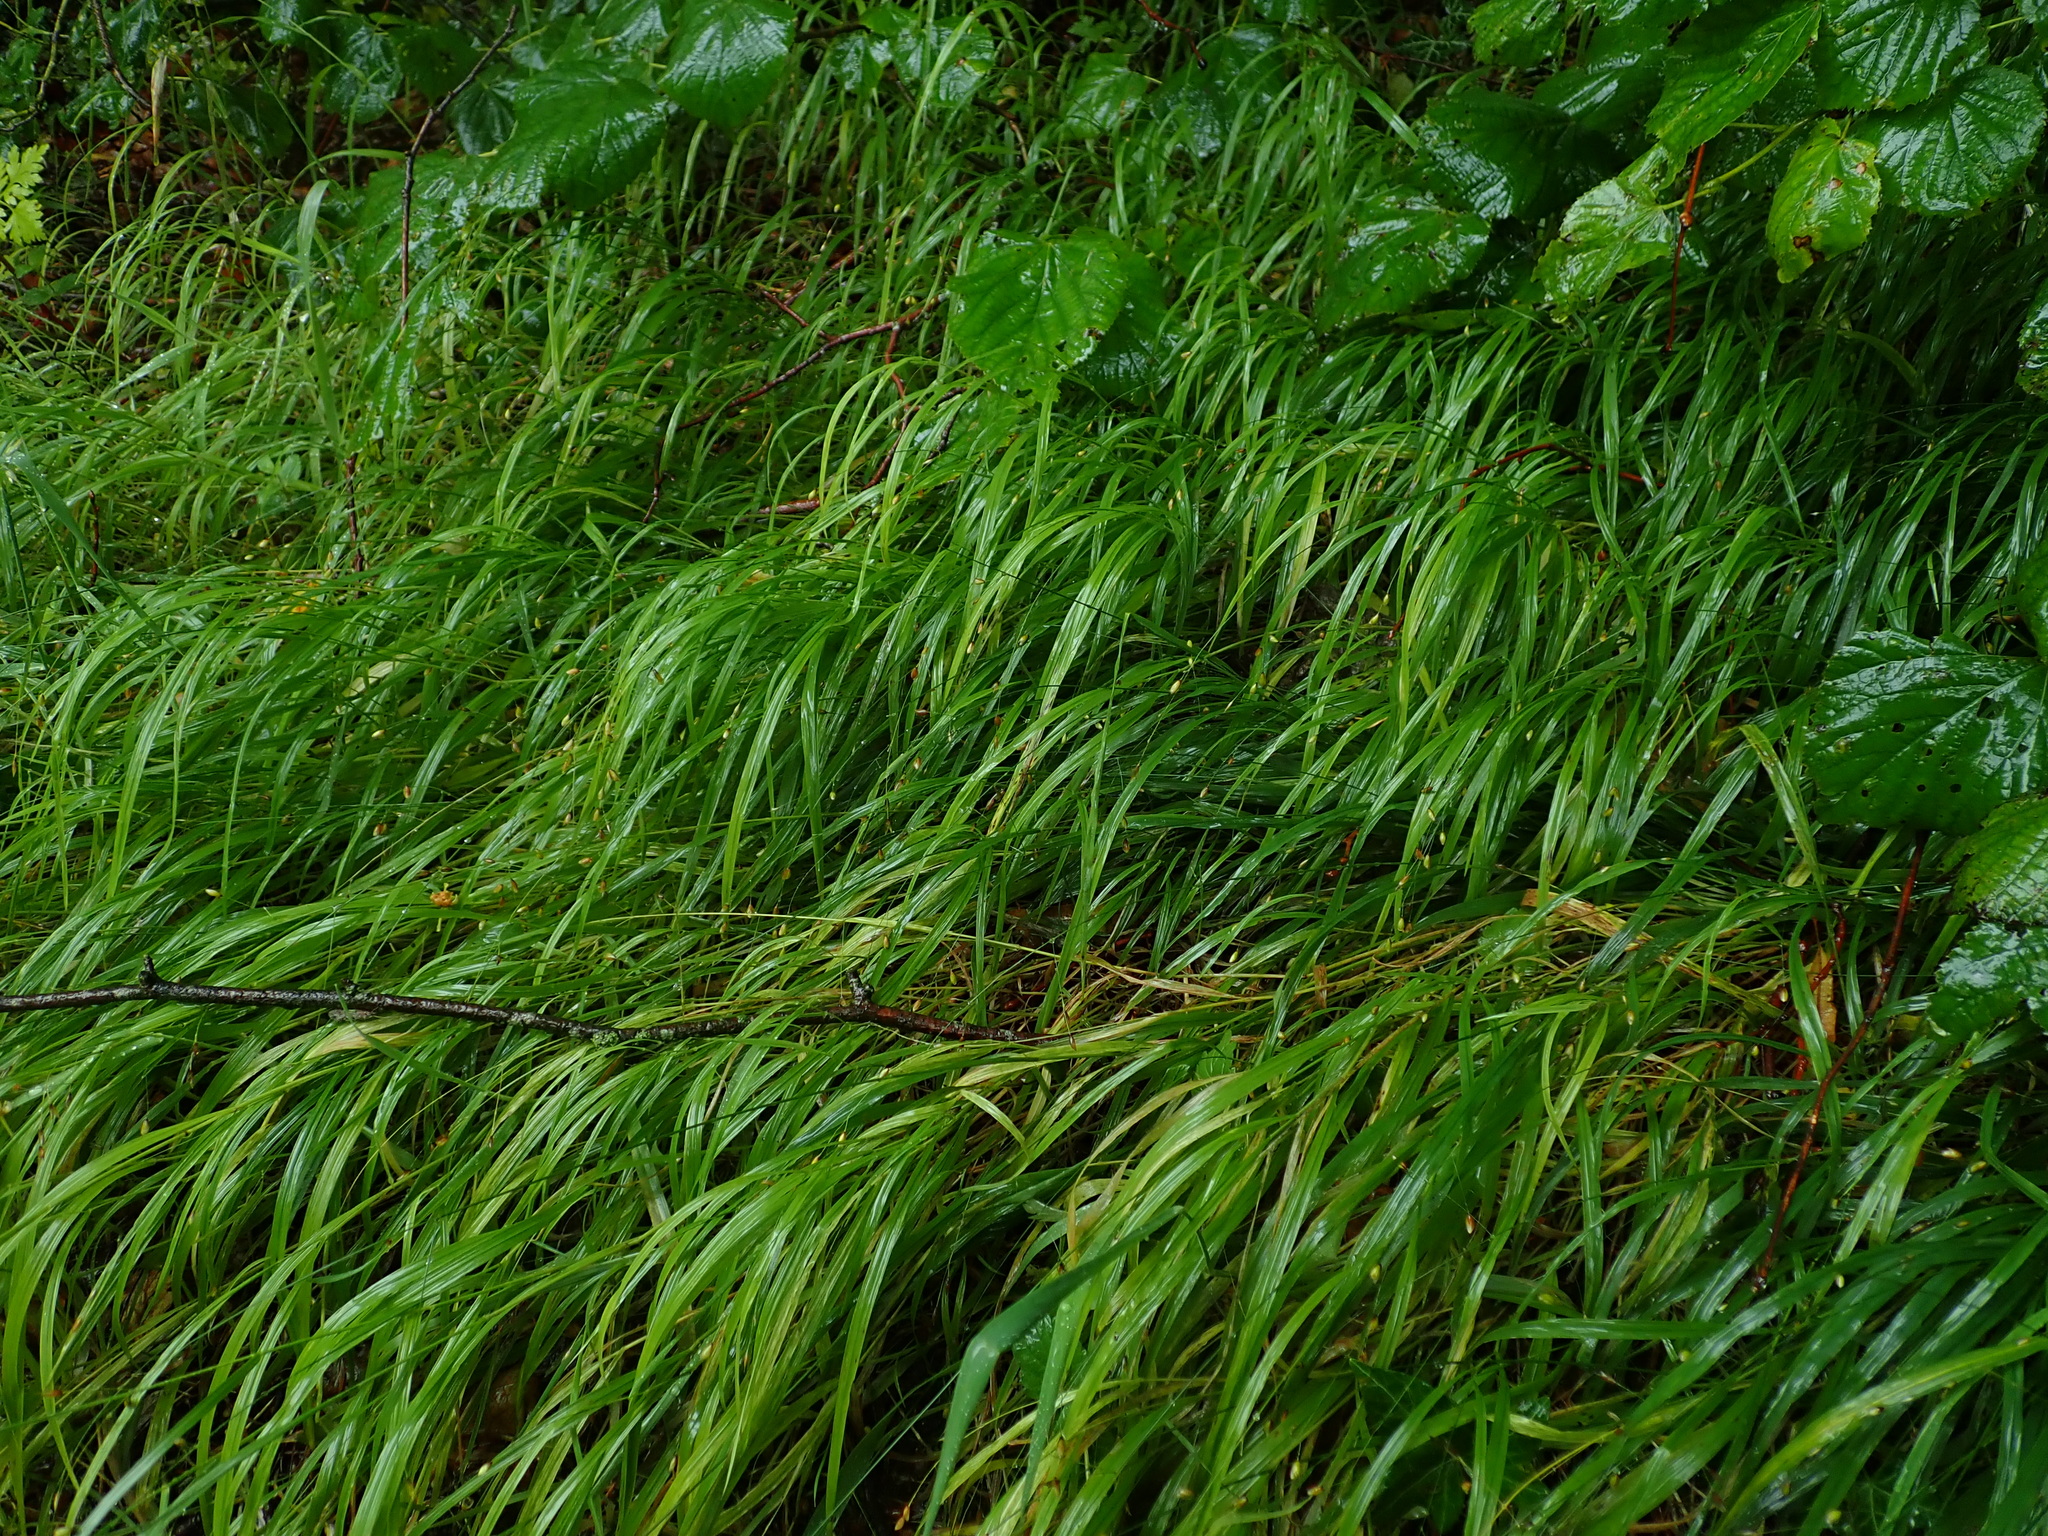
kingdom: Plantae
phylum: Tracheophyta
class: Liliopsida
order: Poales
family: Poaceae
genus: Melica
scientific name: Melica uniflora
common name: Wood melick
